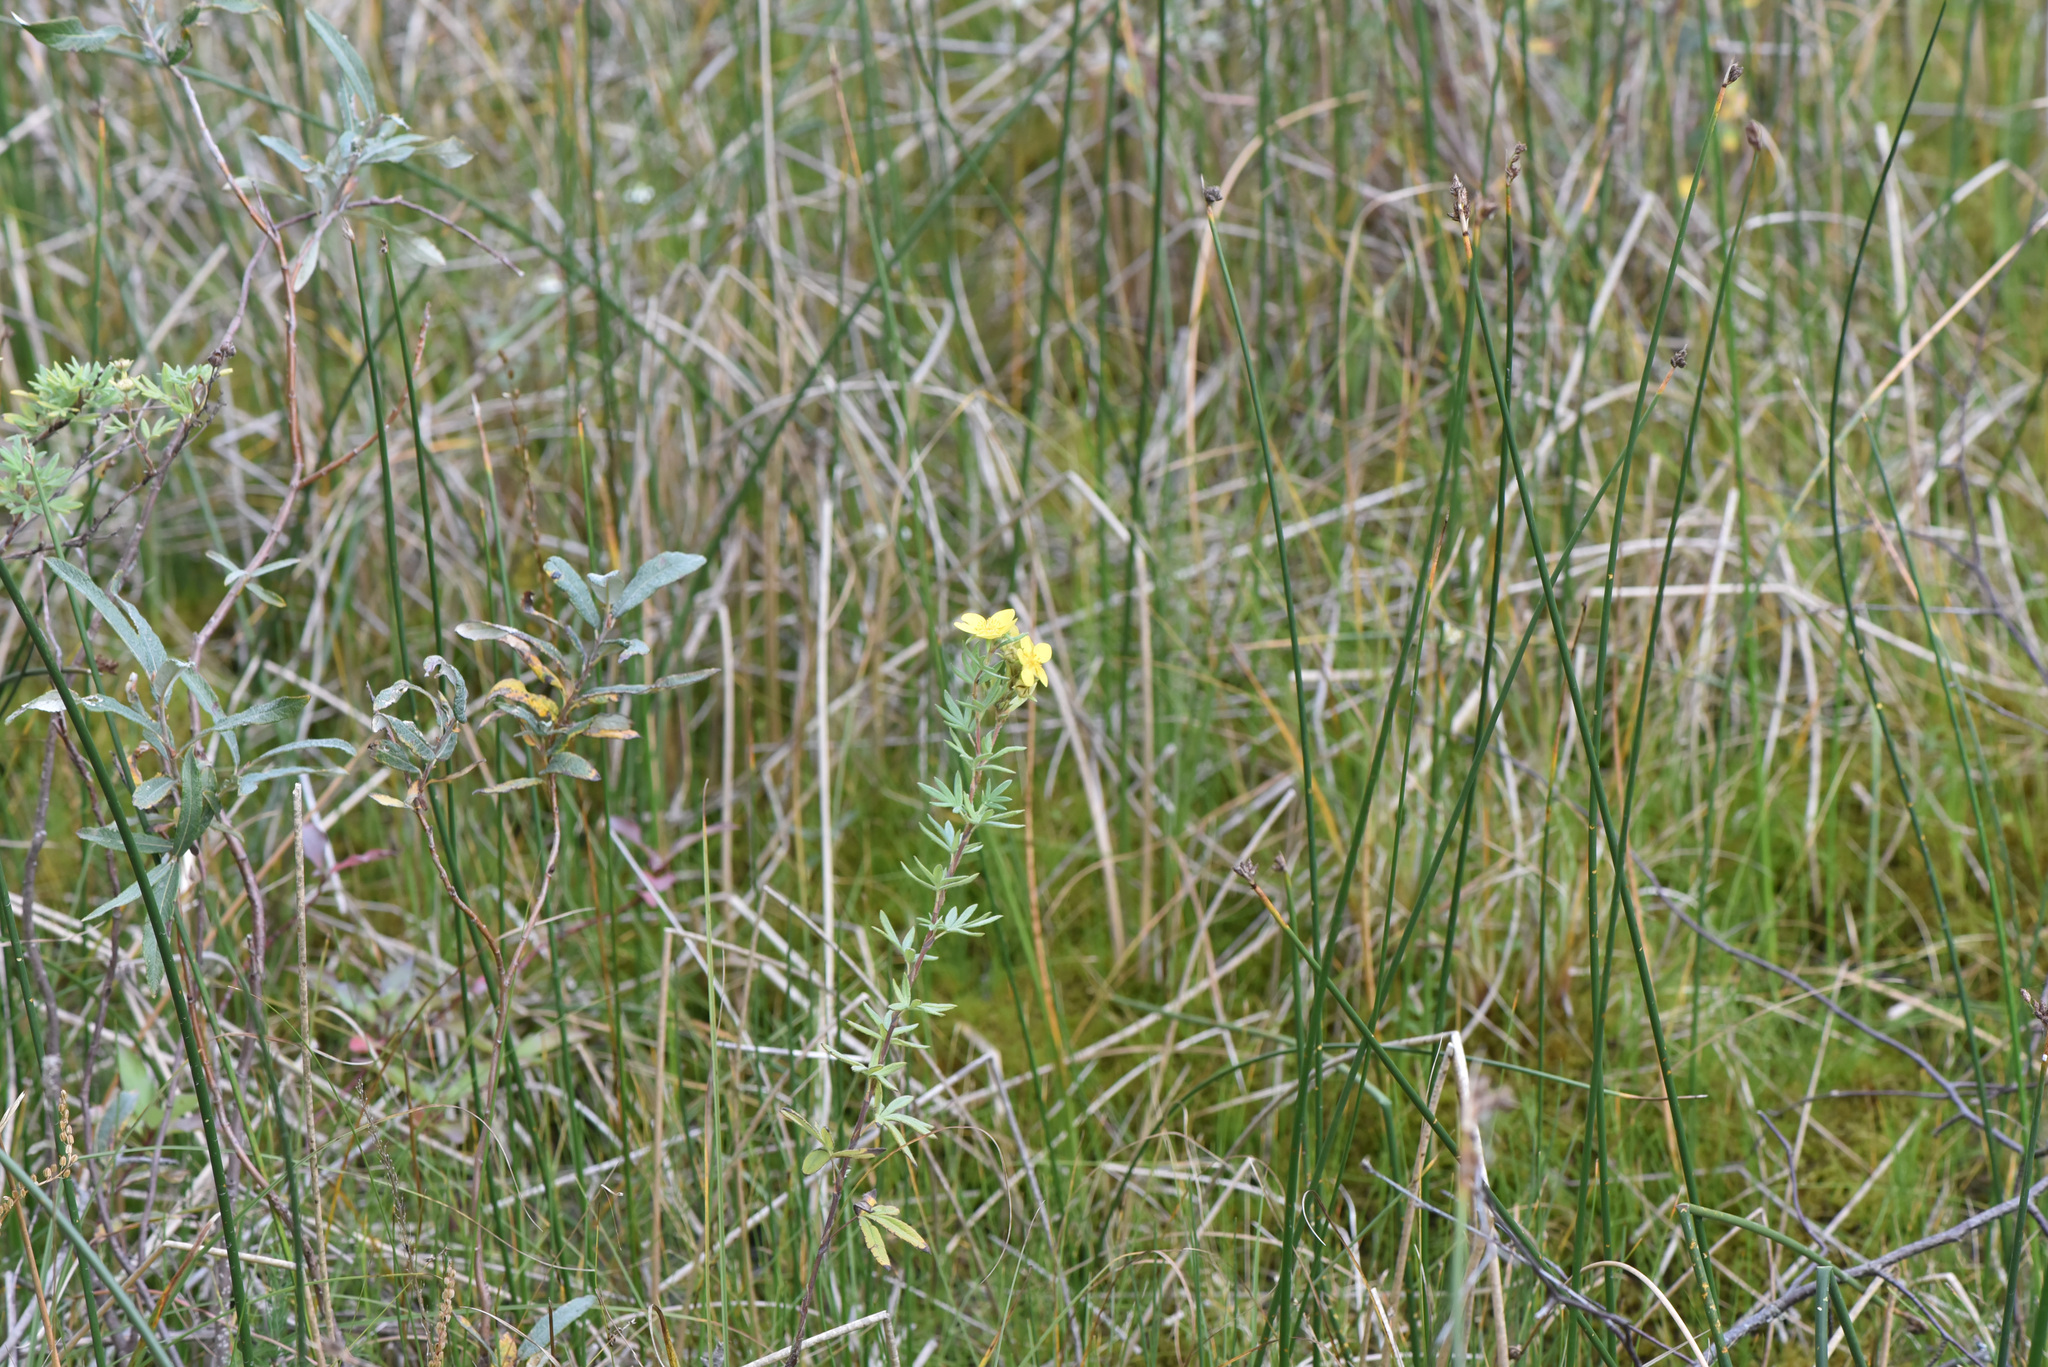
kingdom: Plantae
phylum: Tracheophyta
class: Magnoliopsida
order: Rosales
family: Rosaceae
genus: Dasiphora
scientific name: Dasiphora fruticosa
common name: Shrubby cinquefoil
